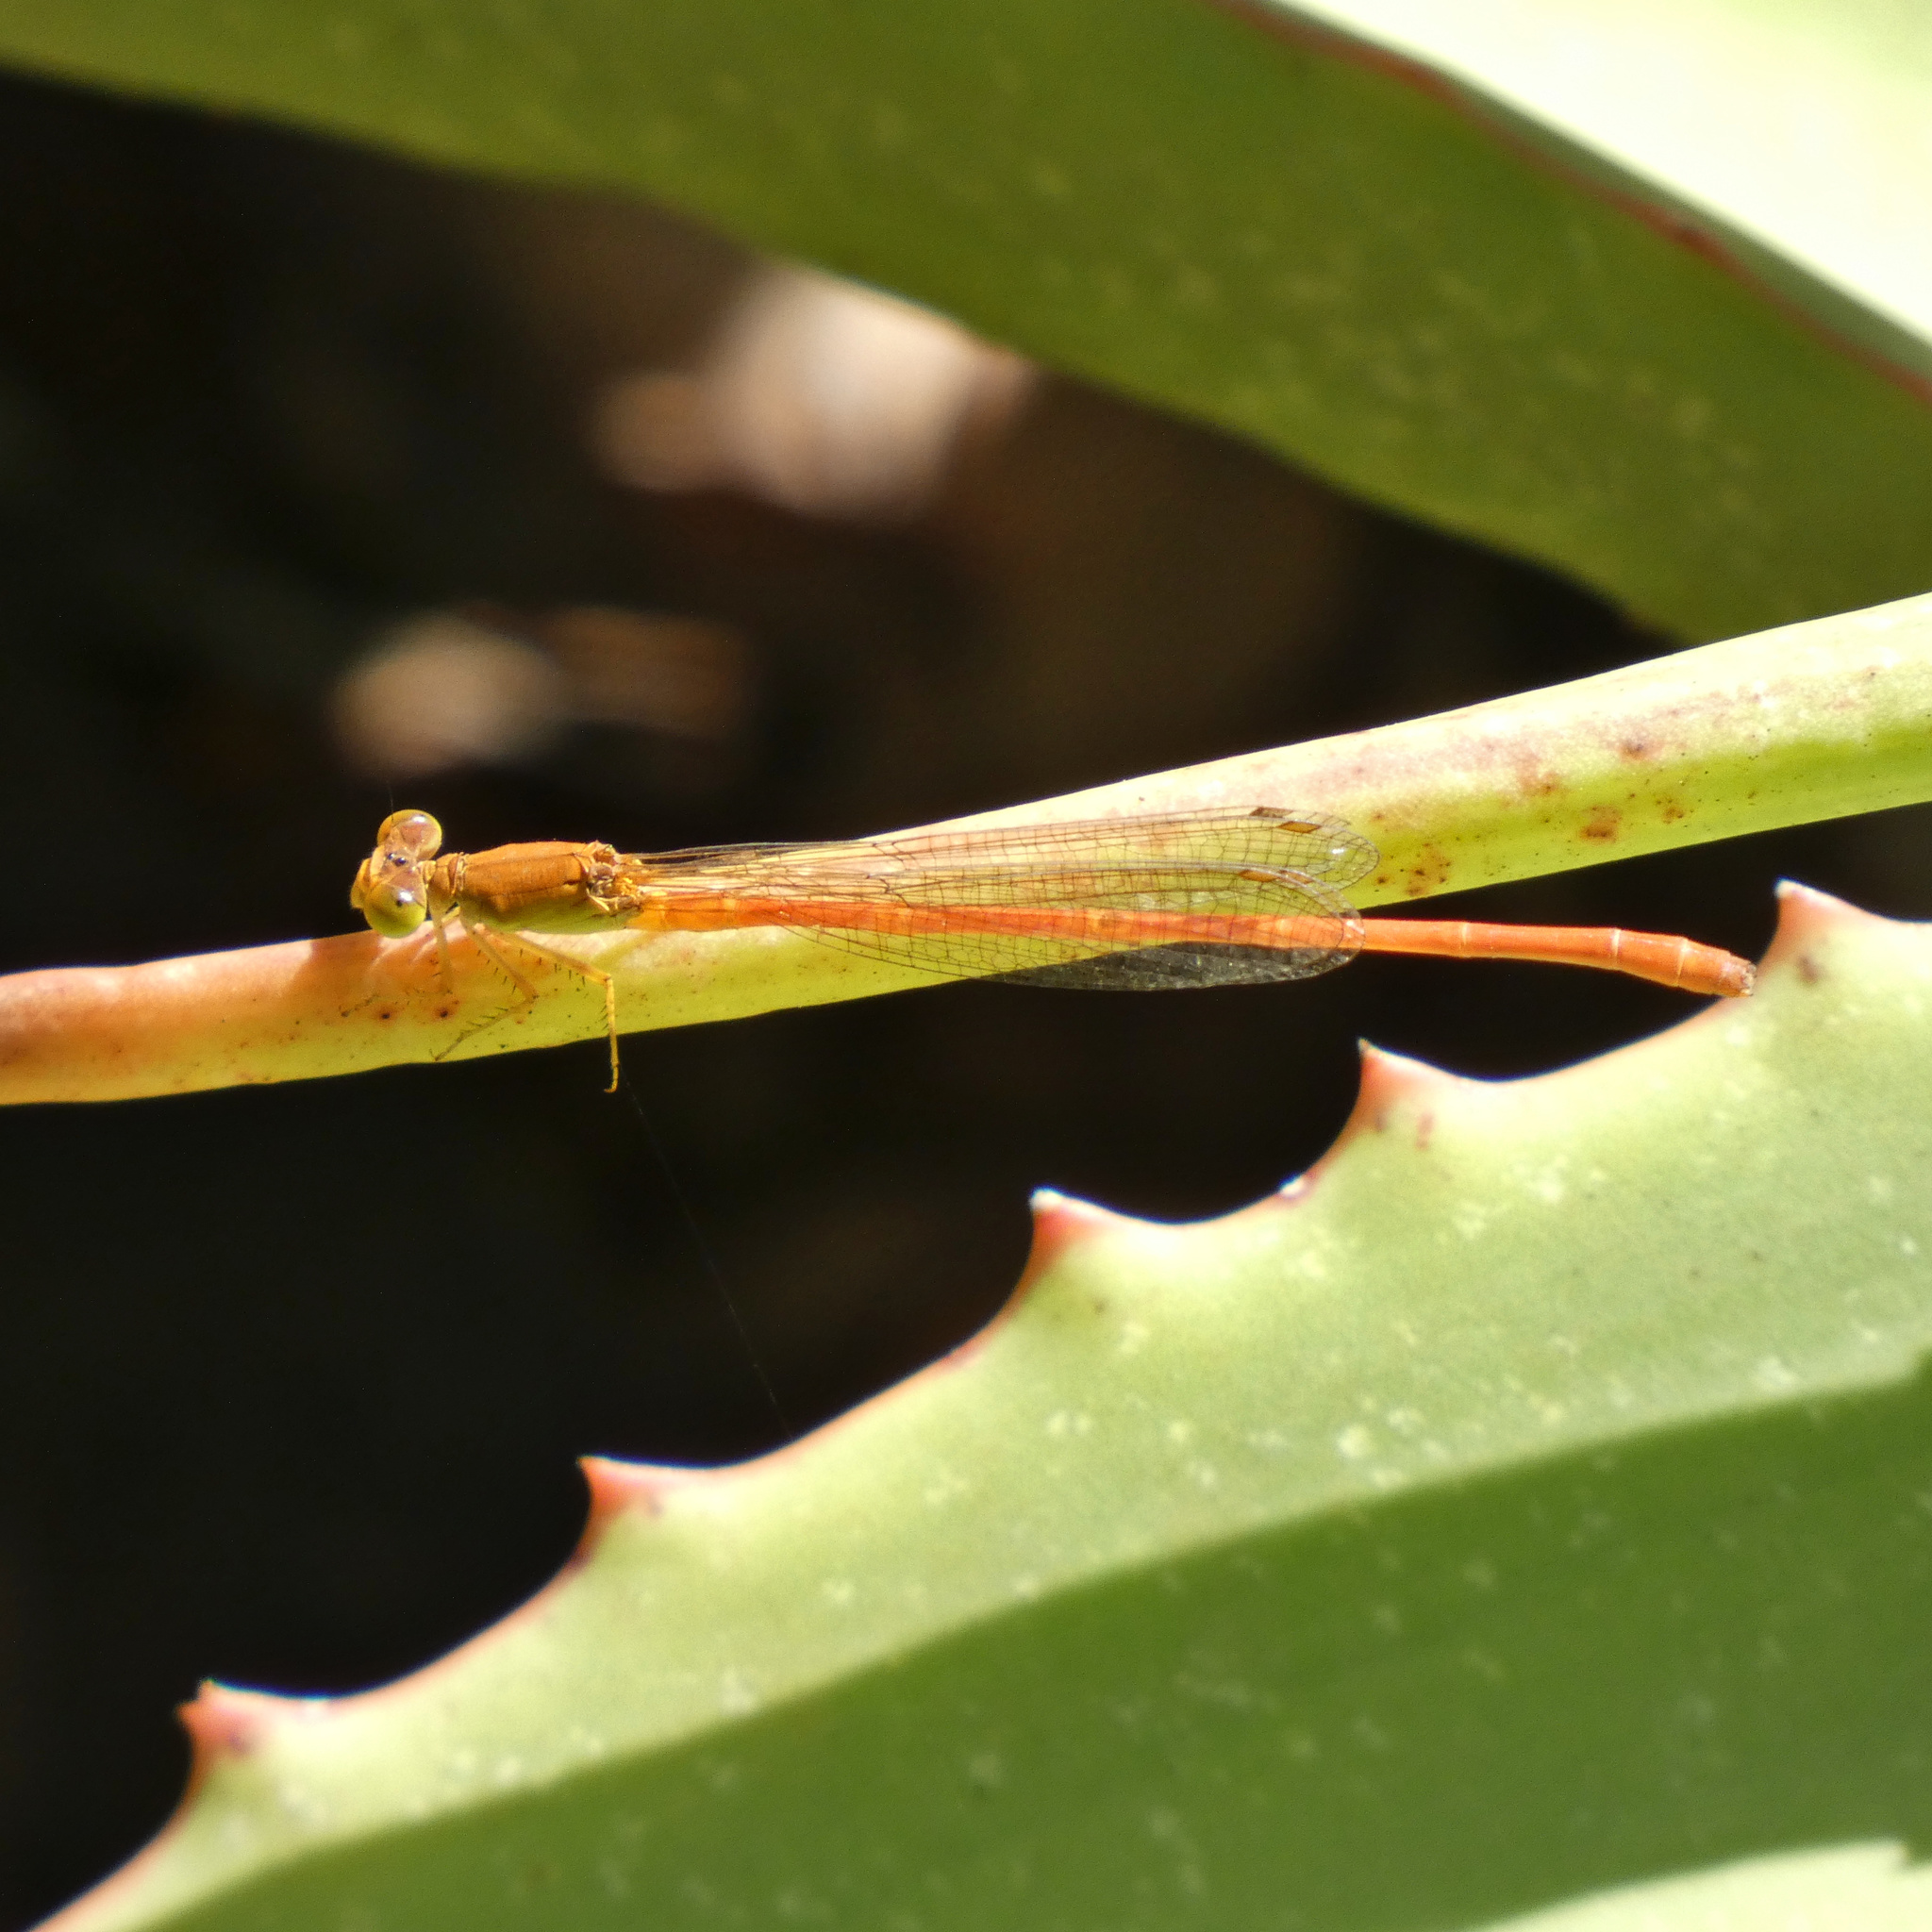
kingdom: Animalia
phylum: Arthropoda
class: Insecta
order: Odonata
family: Coenagrionidae
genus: Ceriagrion
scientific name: Ceriagrion glabrum
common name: Common pond damsel
